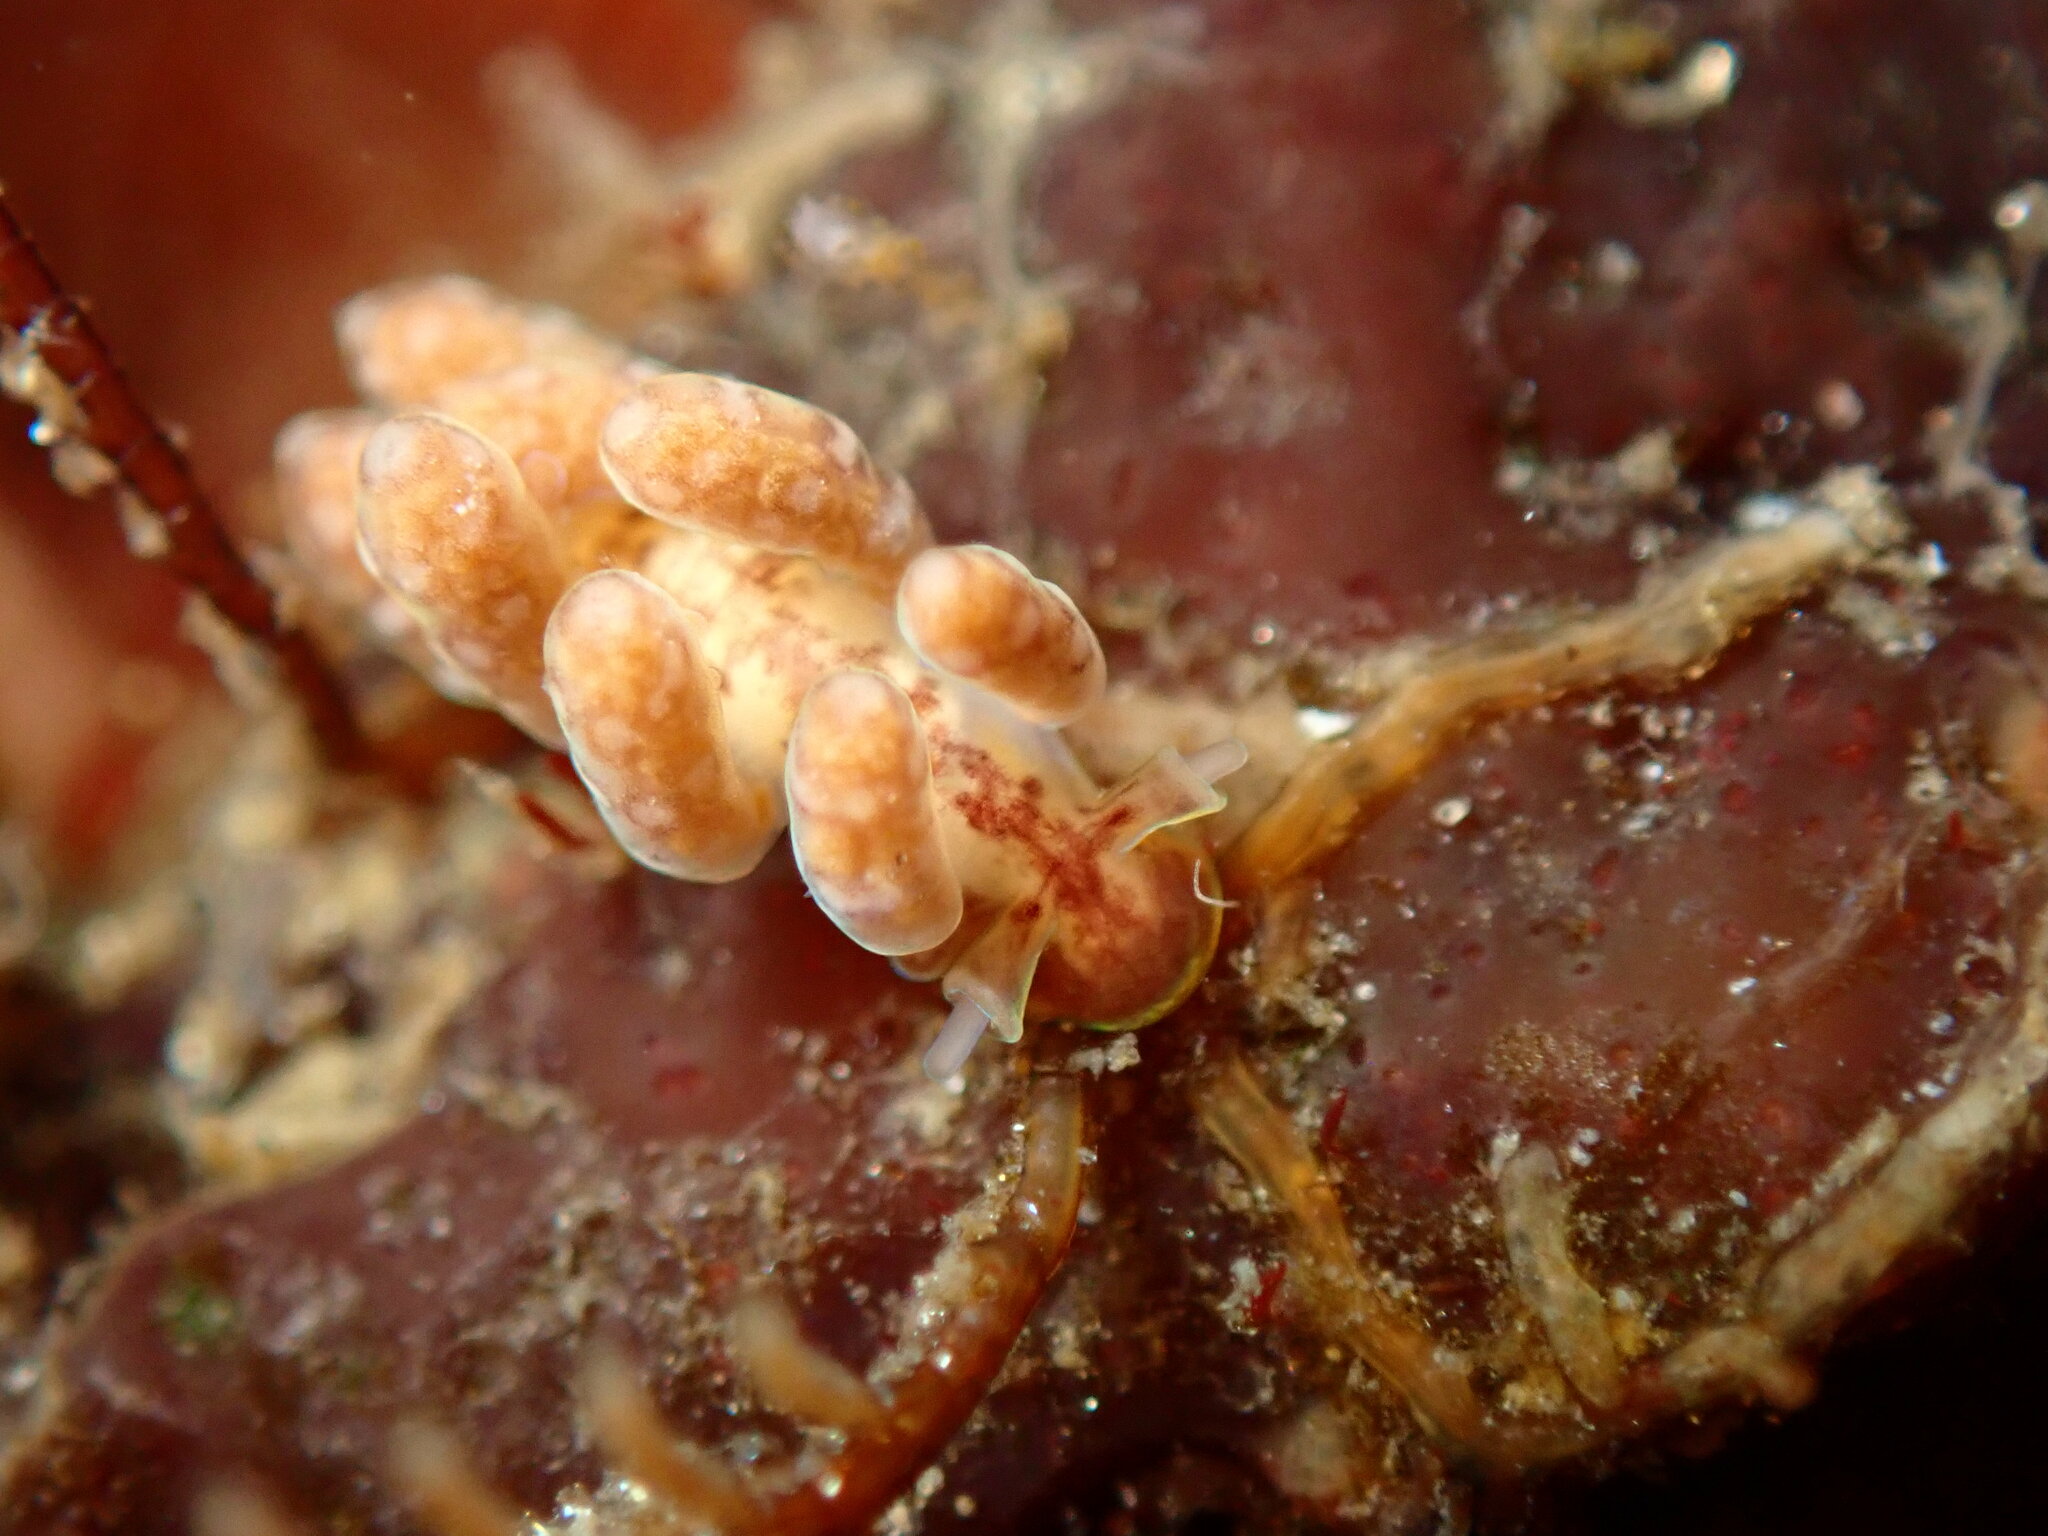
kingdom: Animalia
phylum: Mollusca
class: Gastropoda
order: Nudibranchia
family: Dotidae
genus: Doto
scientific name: Doto columbiana
